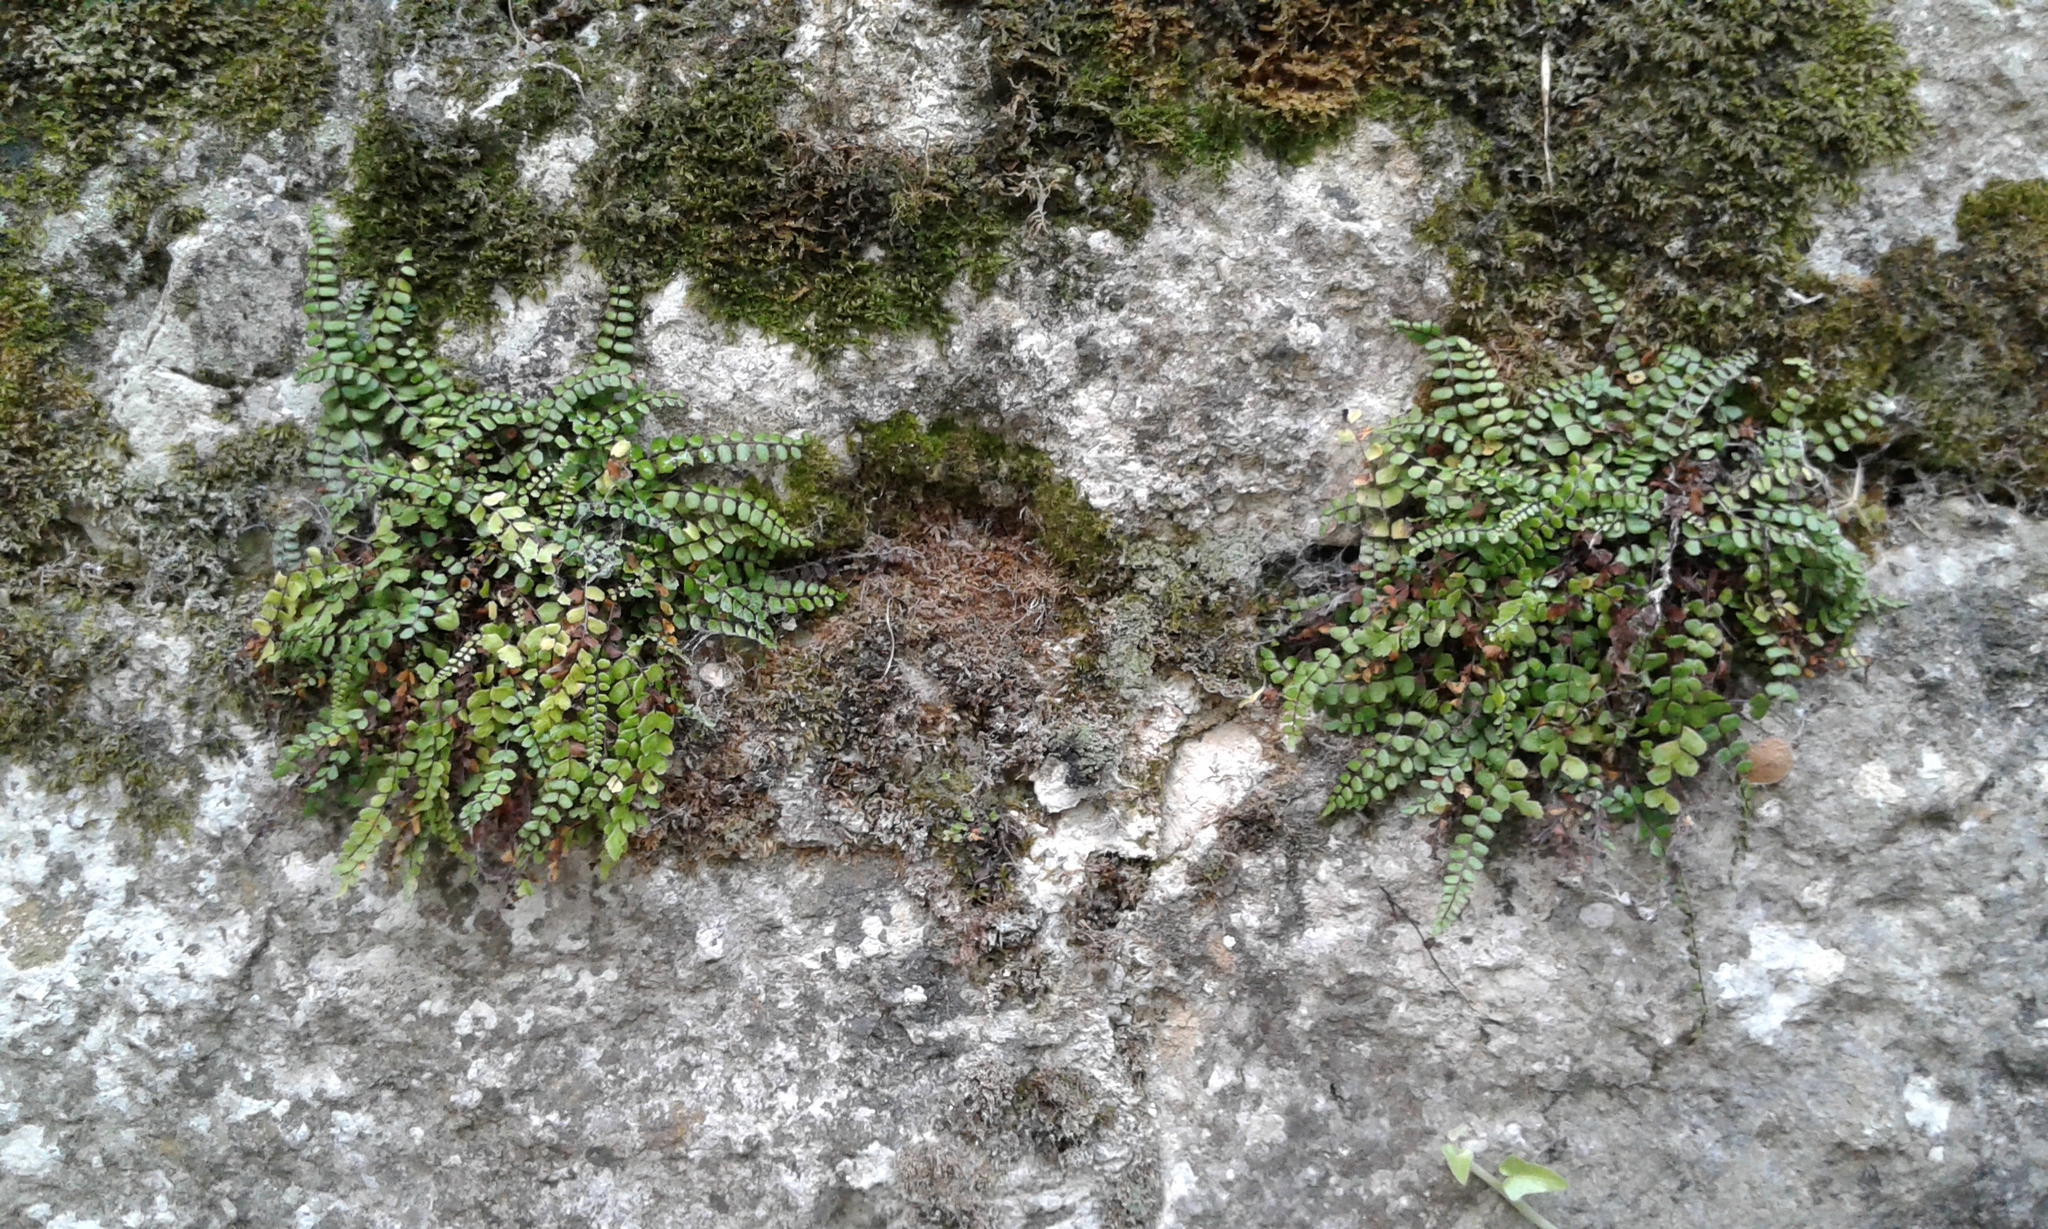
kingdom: Plantae
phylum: Tracheophyta
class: Polypodiopsida
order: Polypodiales
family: Aspleniaceae
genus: Asplenium
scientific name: Asplenium viride
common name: Green spleenwort
